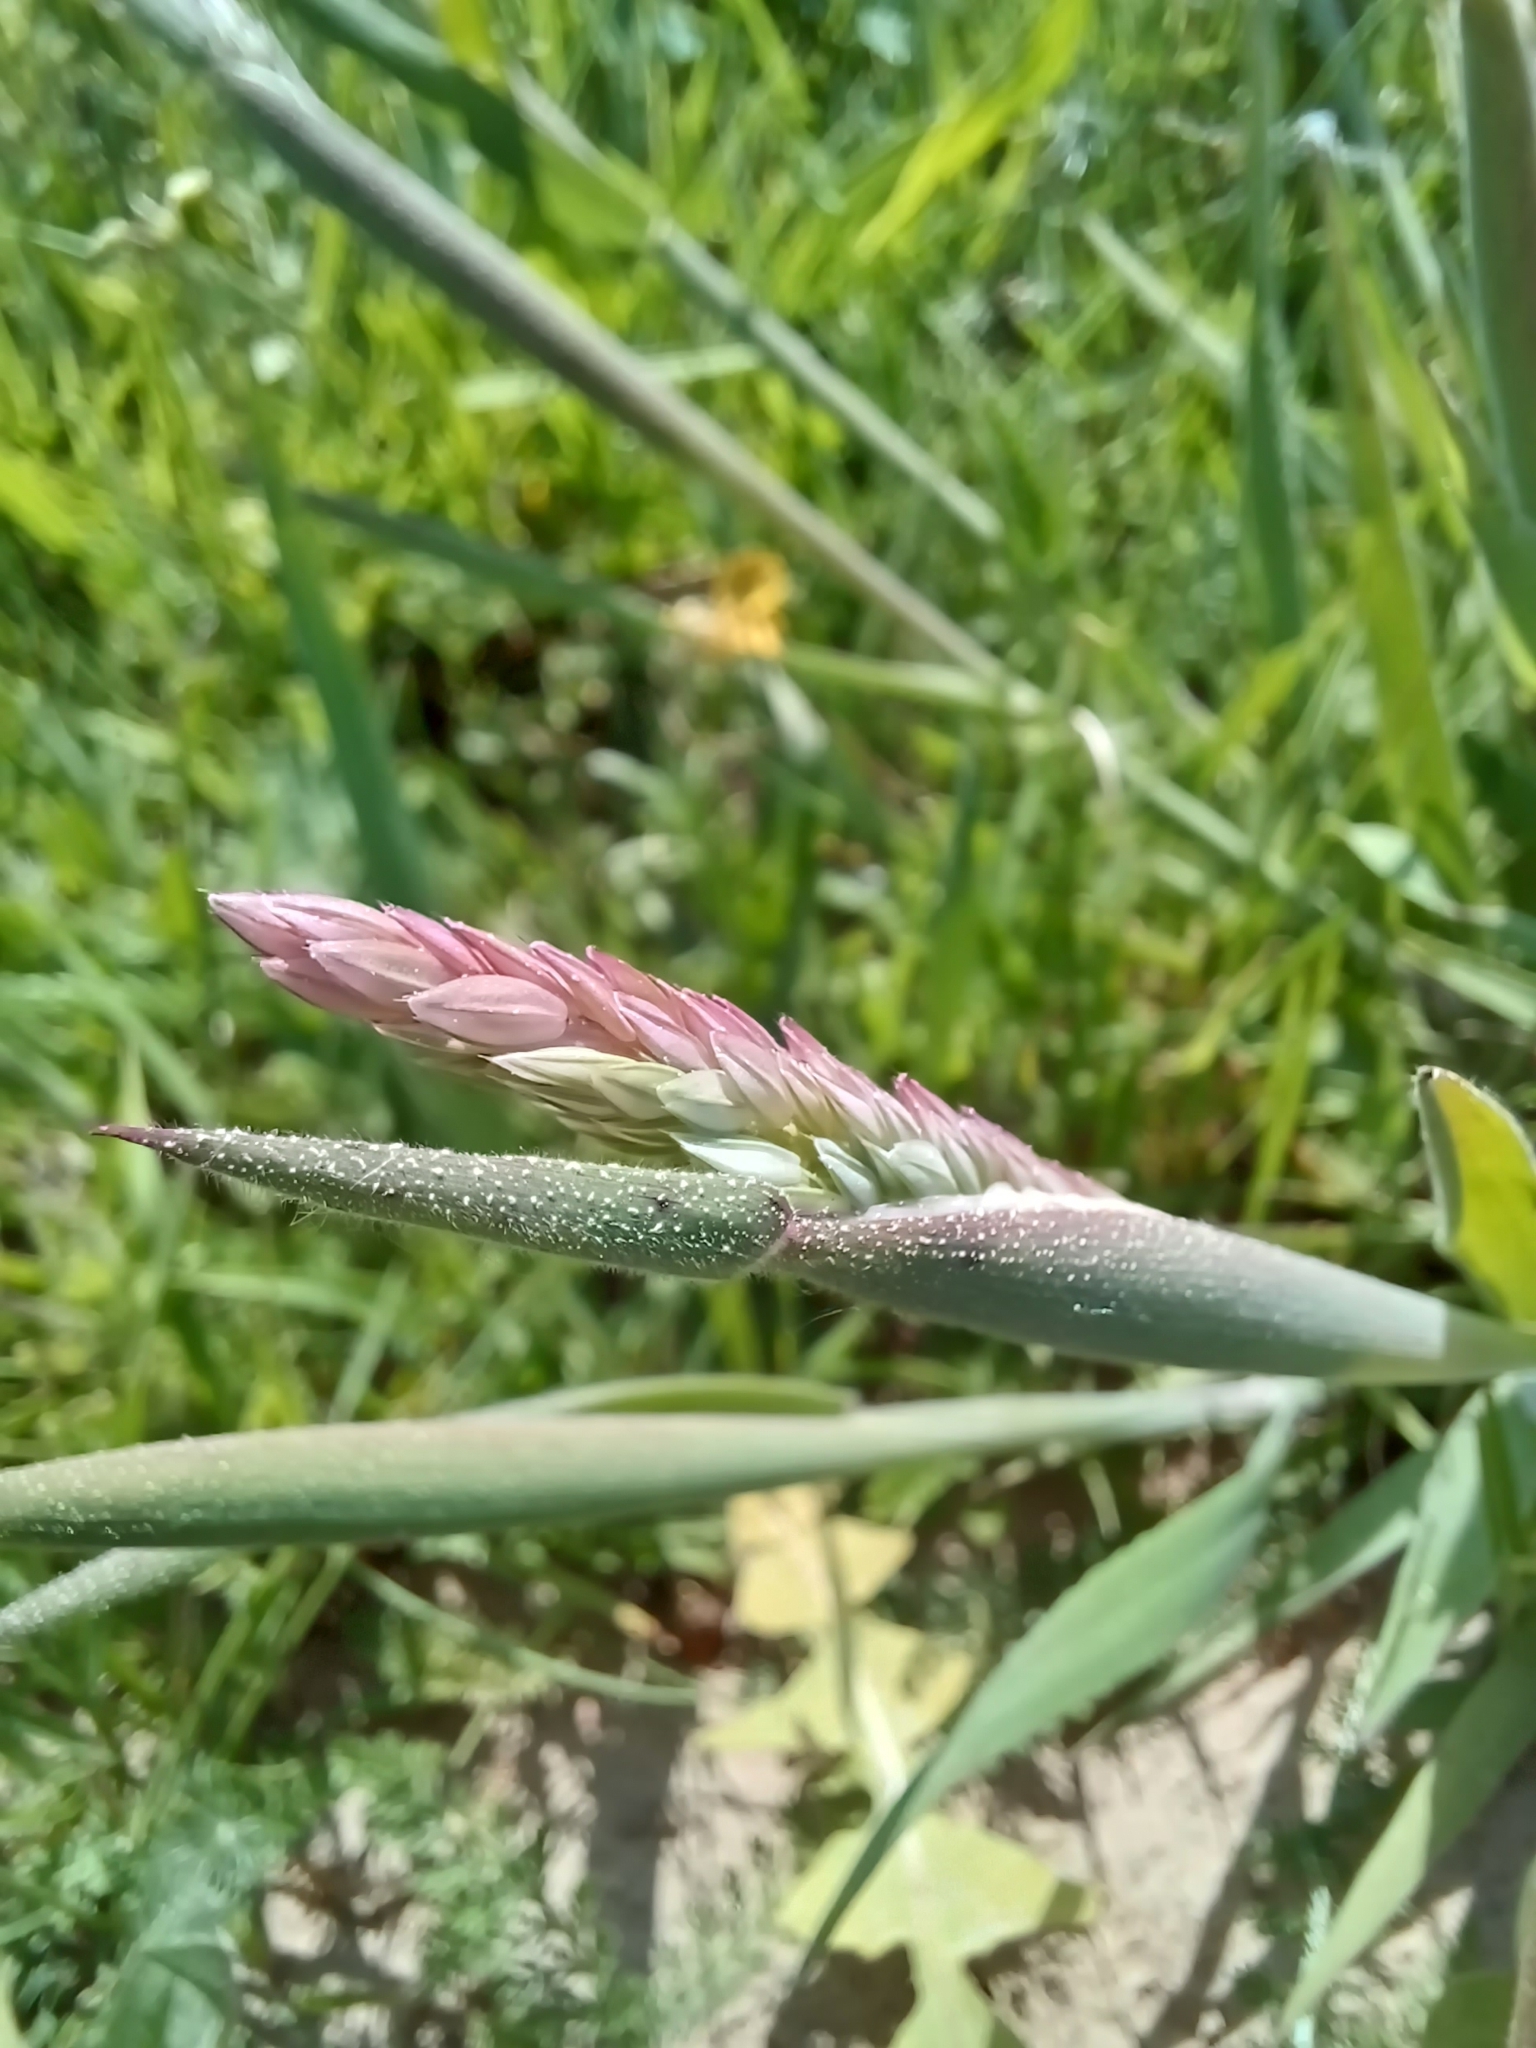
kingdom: Plantae
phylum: Tracheophyta
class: Liliopsida
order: Poales
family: Poaceae
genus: Holcus
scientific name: Holcus lanatus
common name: Yorkshire-fog
